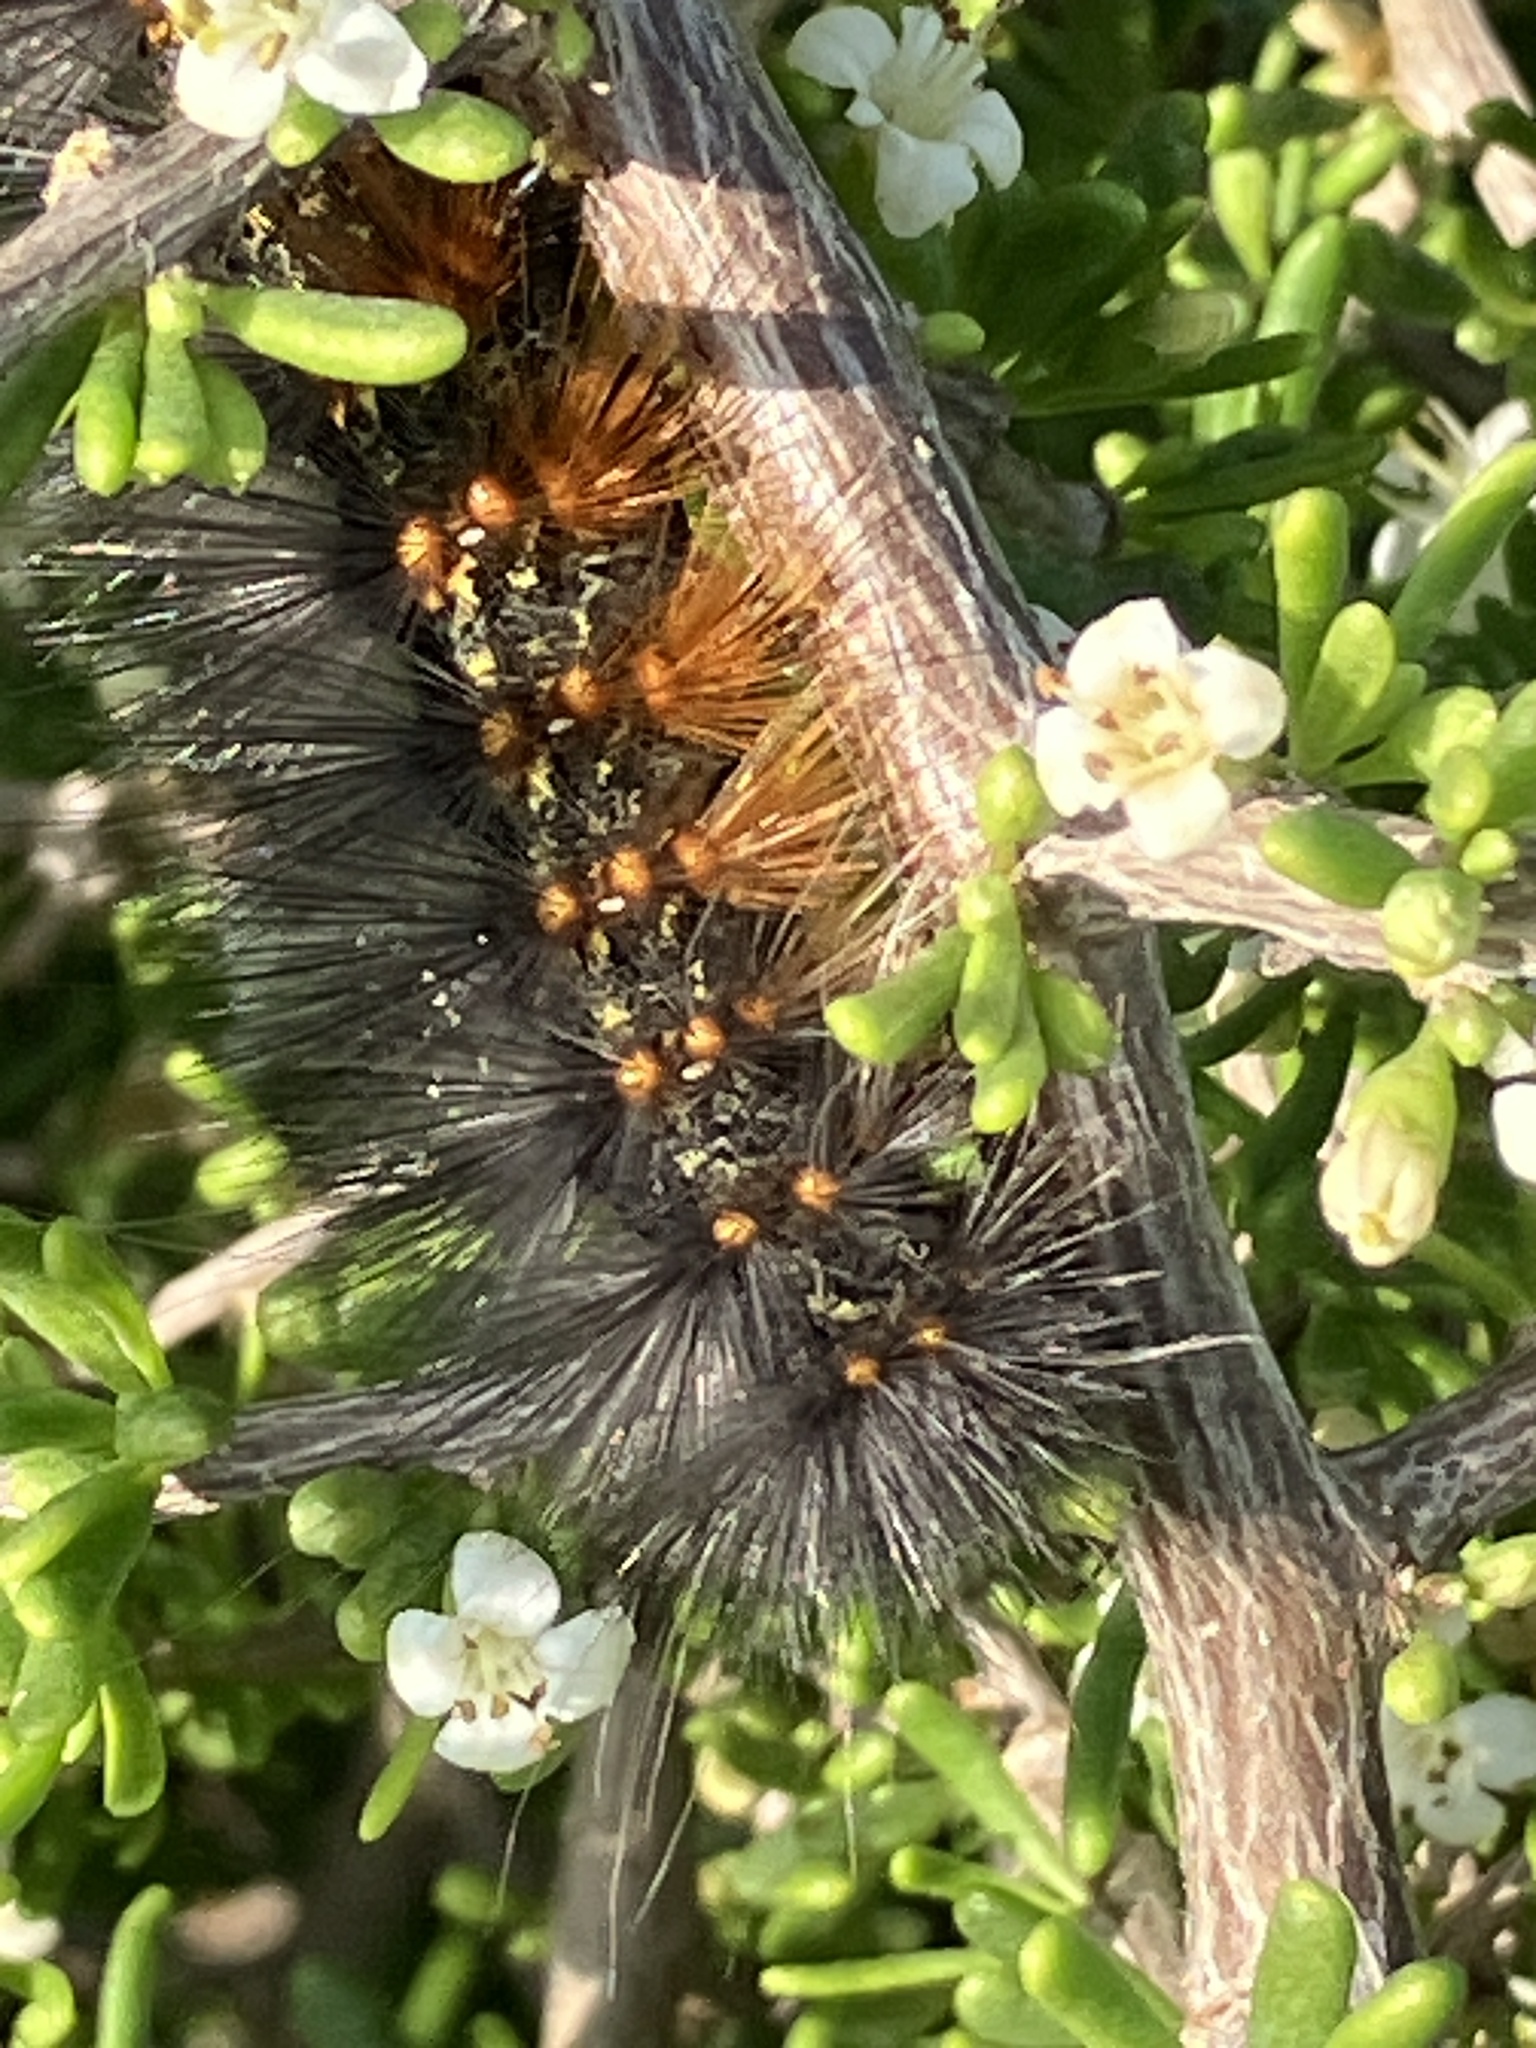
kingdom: Animalia
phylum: Arthropoda
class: Insecta
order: Lepidoptera
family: Erebidae
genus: Estigmene
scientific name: Estigmene acrea
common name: Salt marsh moth
